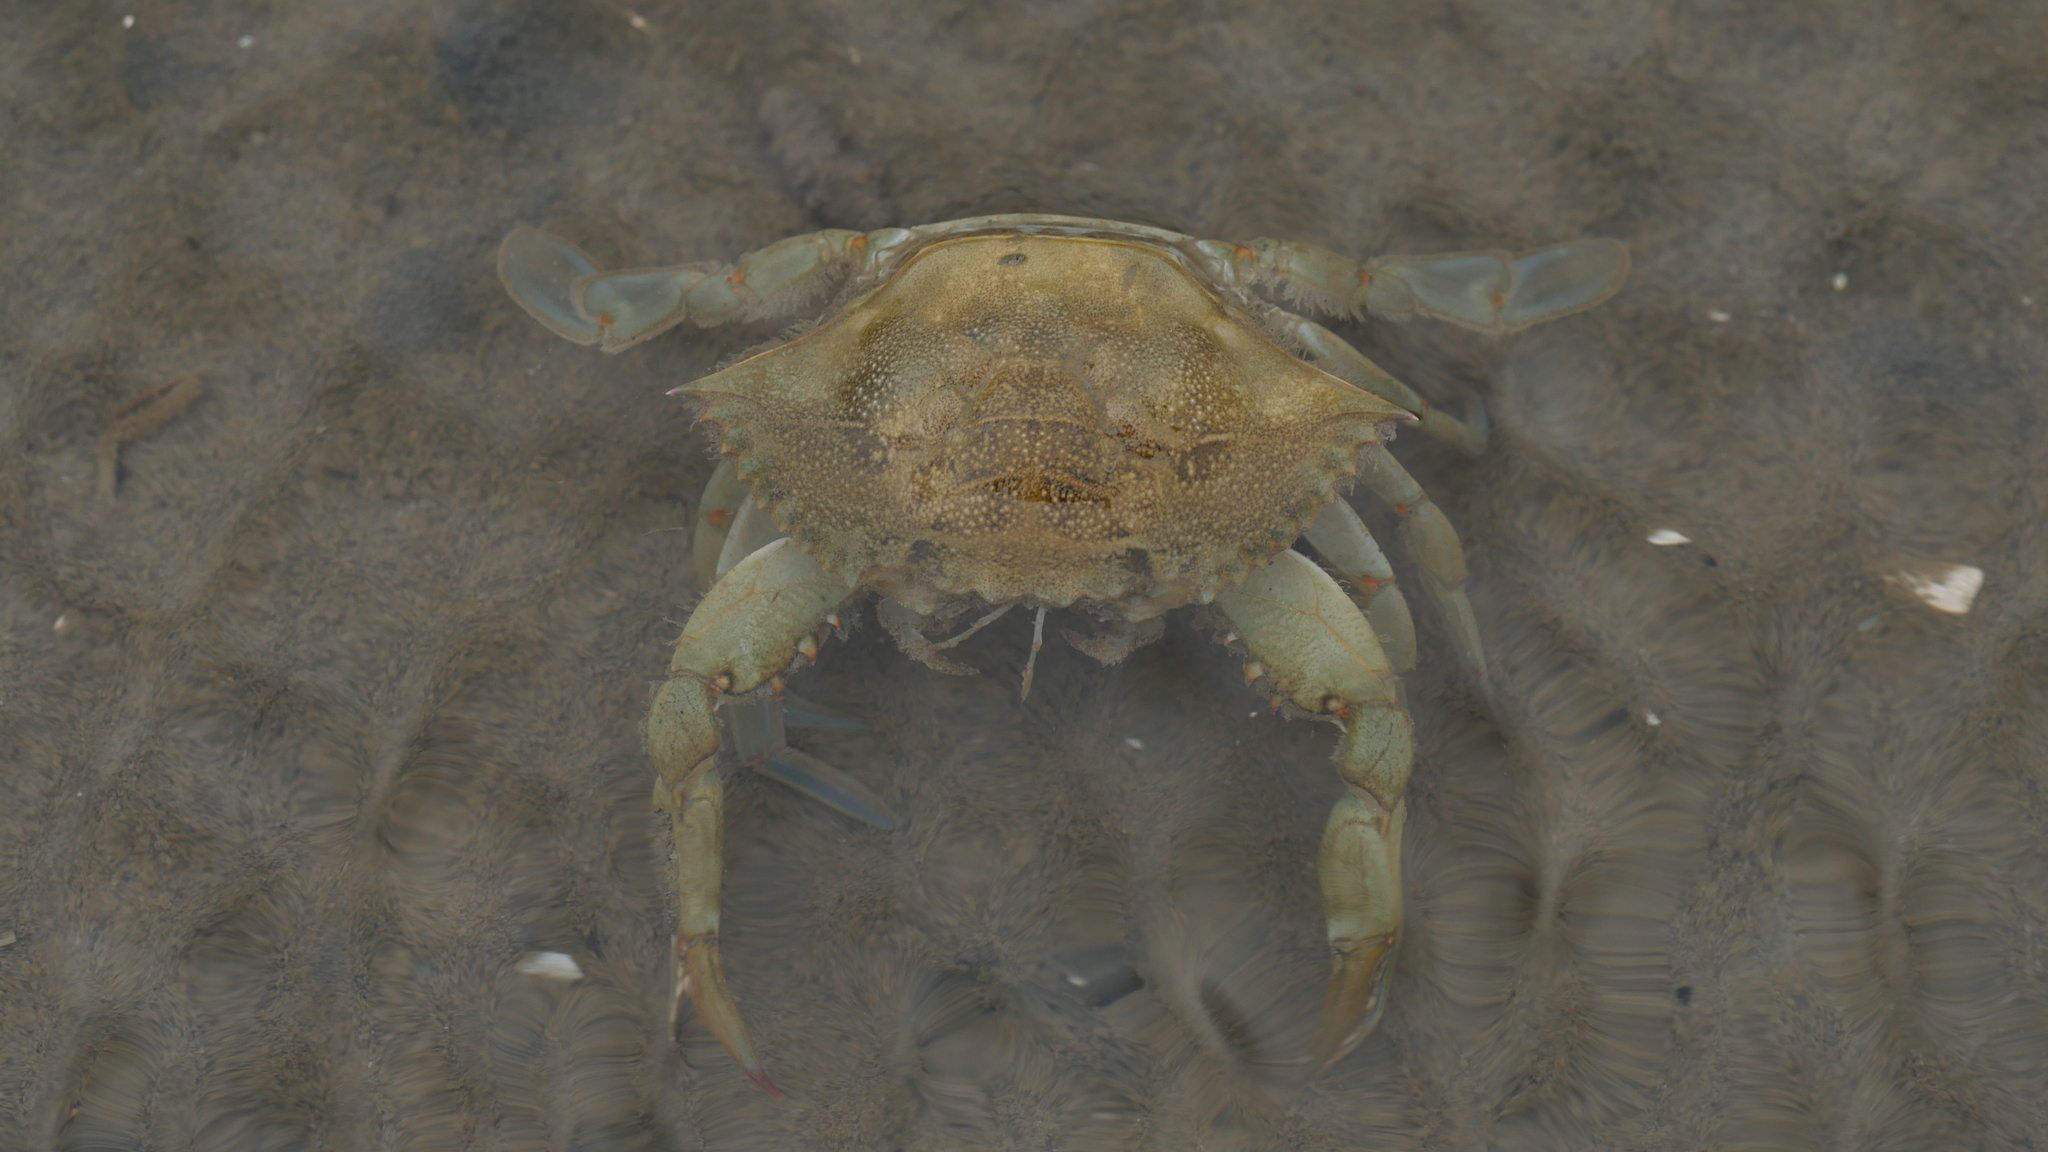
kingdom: Animalia
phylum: Arthropoda
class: Malacostraca
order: Decapoda
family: Portunidae
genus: Callinectes
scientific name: Callinectes sapidus
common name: Blue crab
